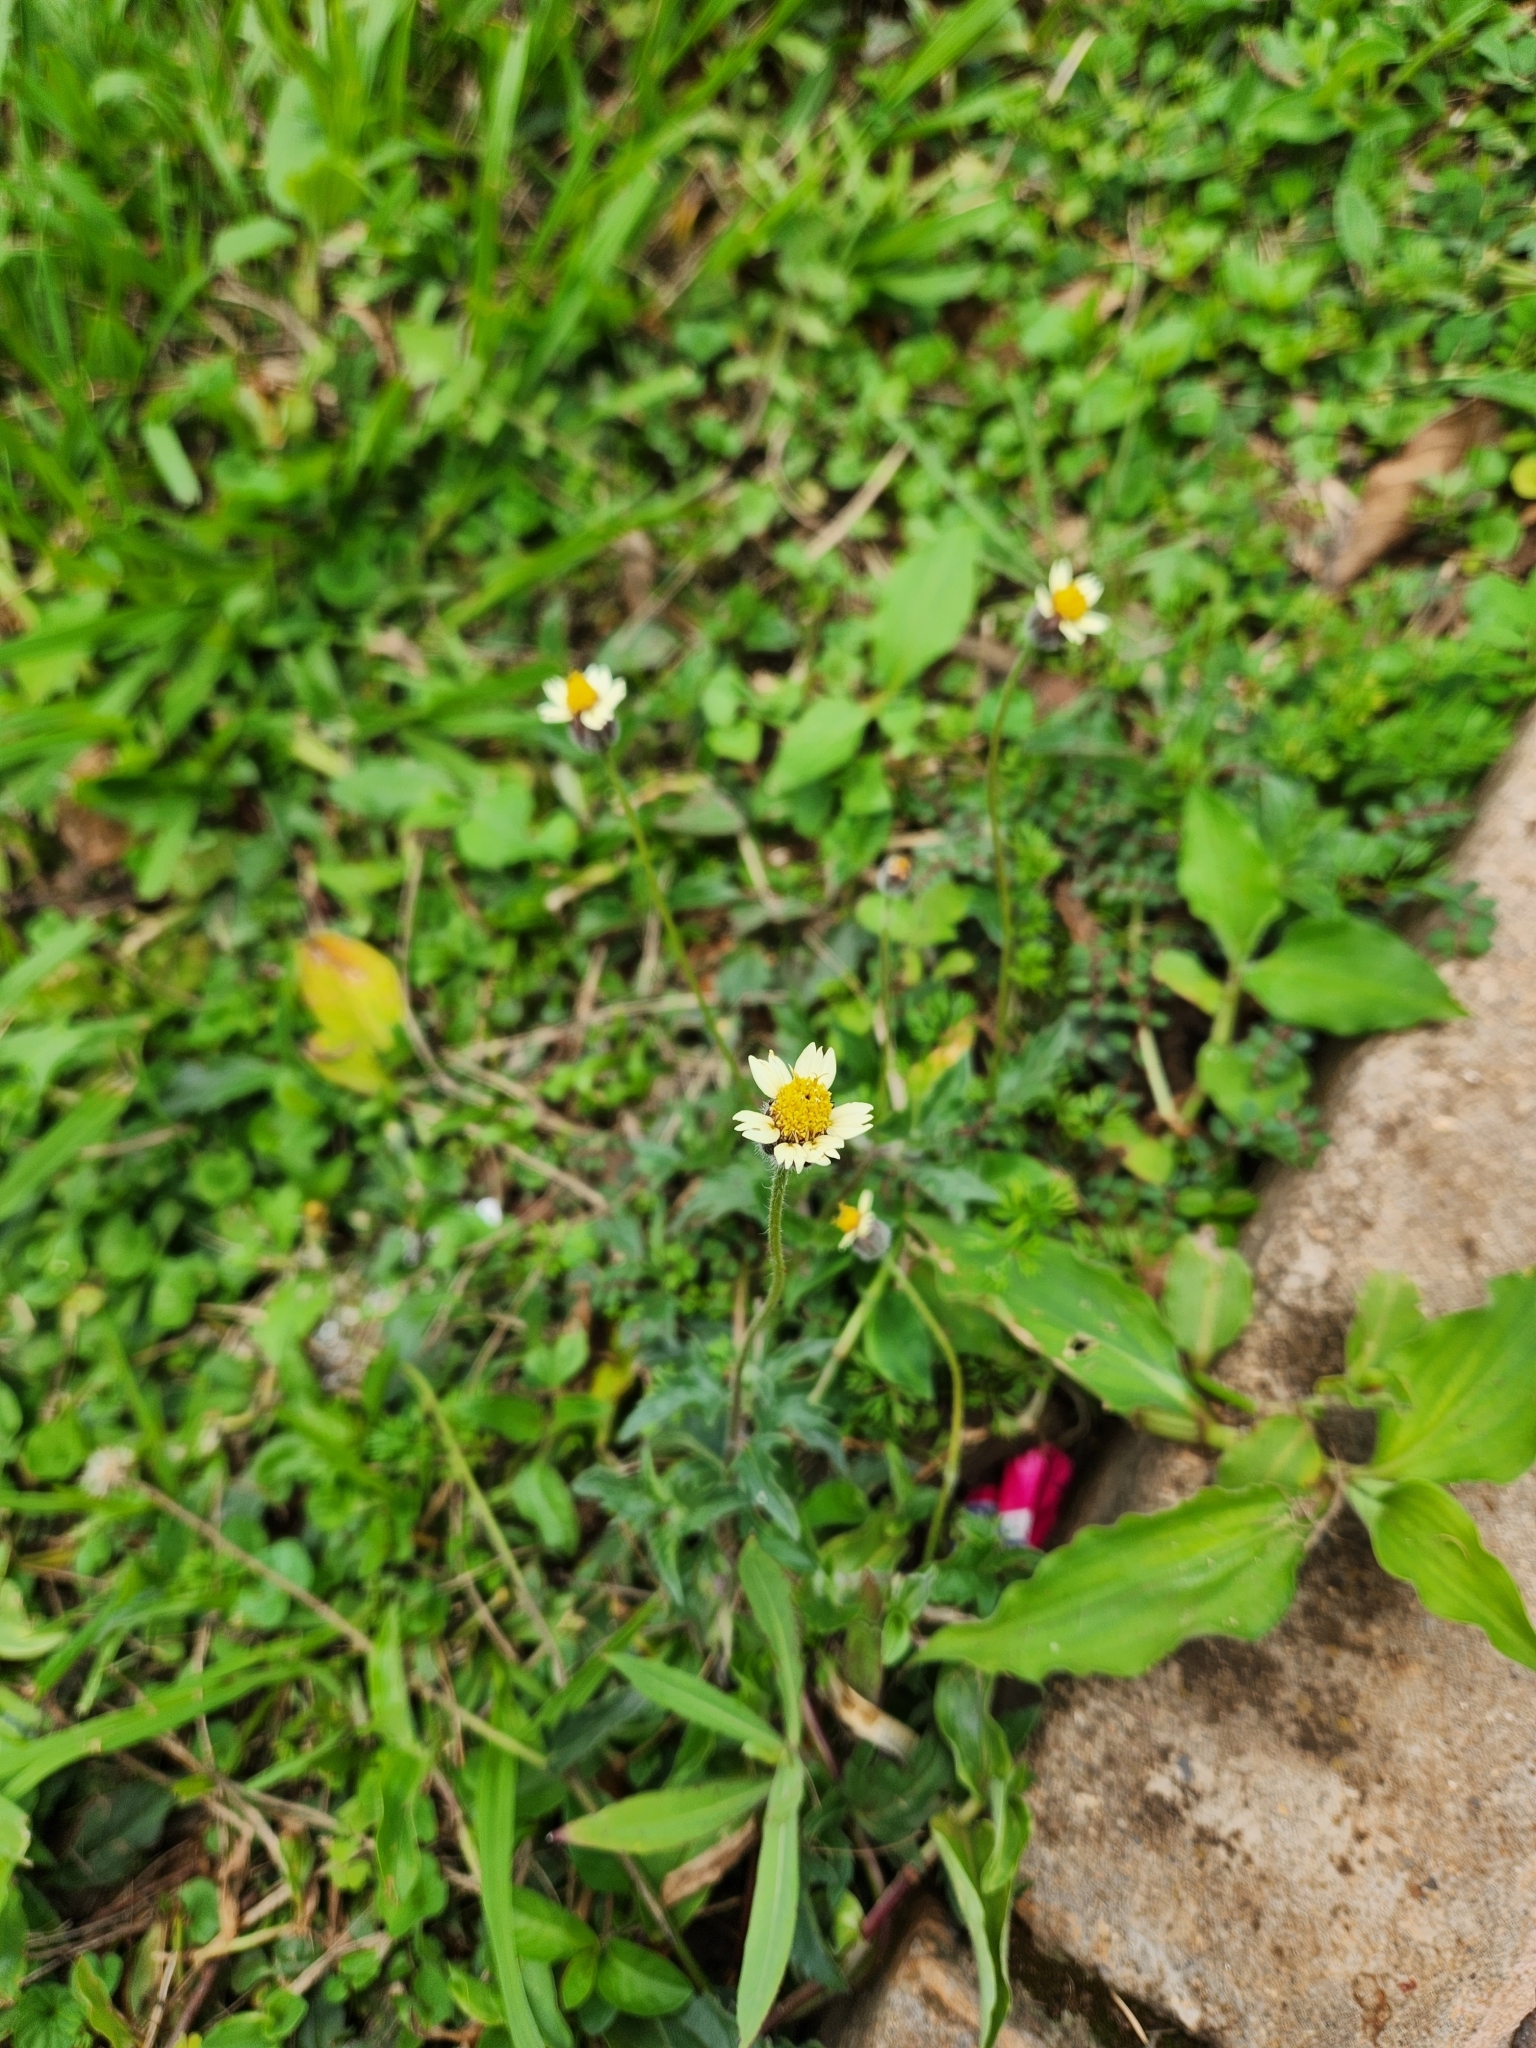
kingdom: Plantae
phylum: Tracheophyta
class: Magnoliopsida
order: Asterales
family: Asteraceae
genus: Tridax
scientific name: Tridax procumbens
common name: Coatbuttons
